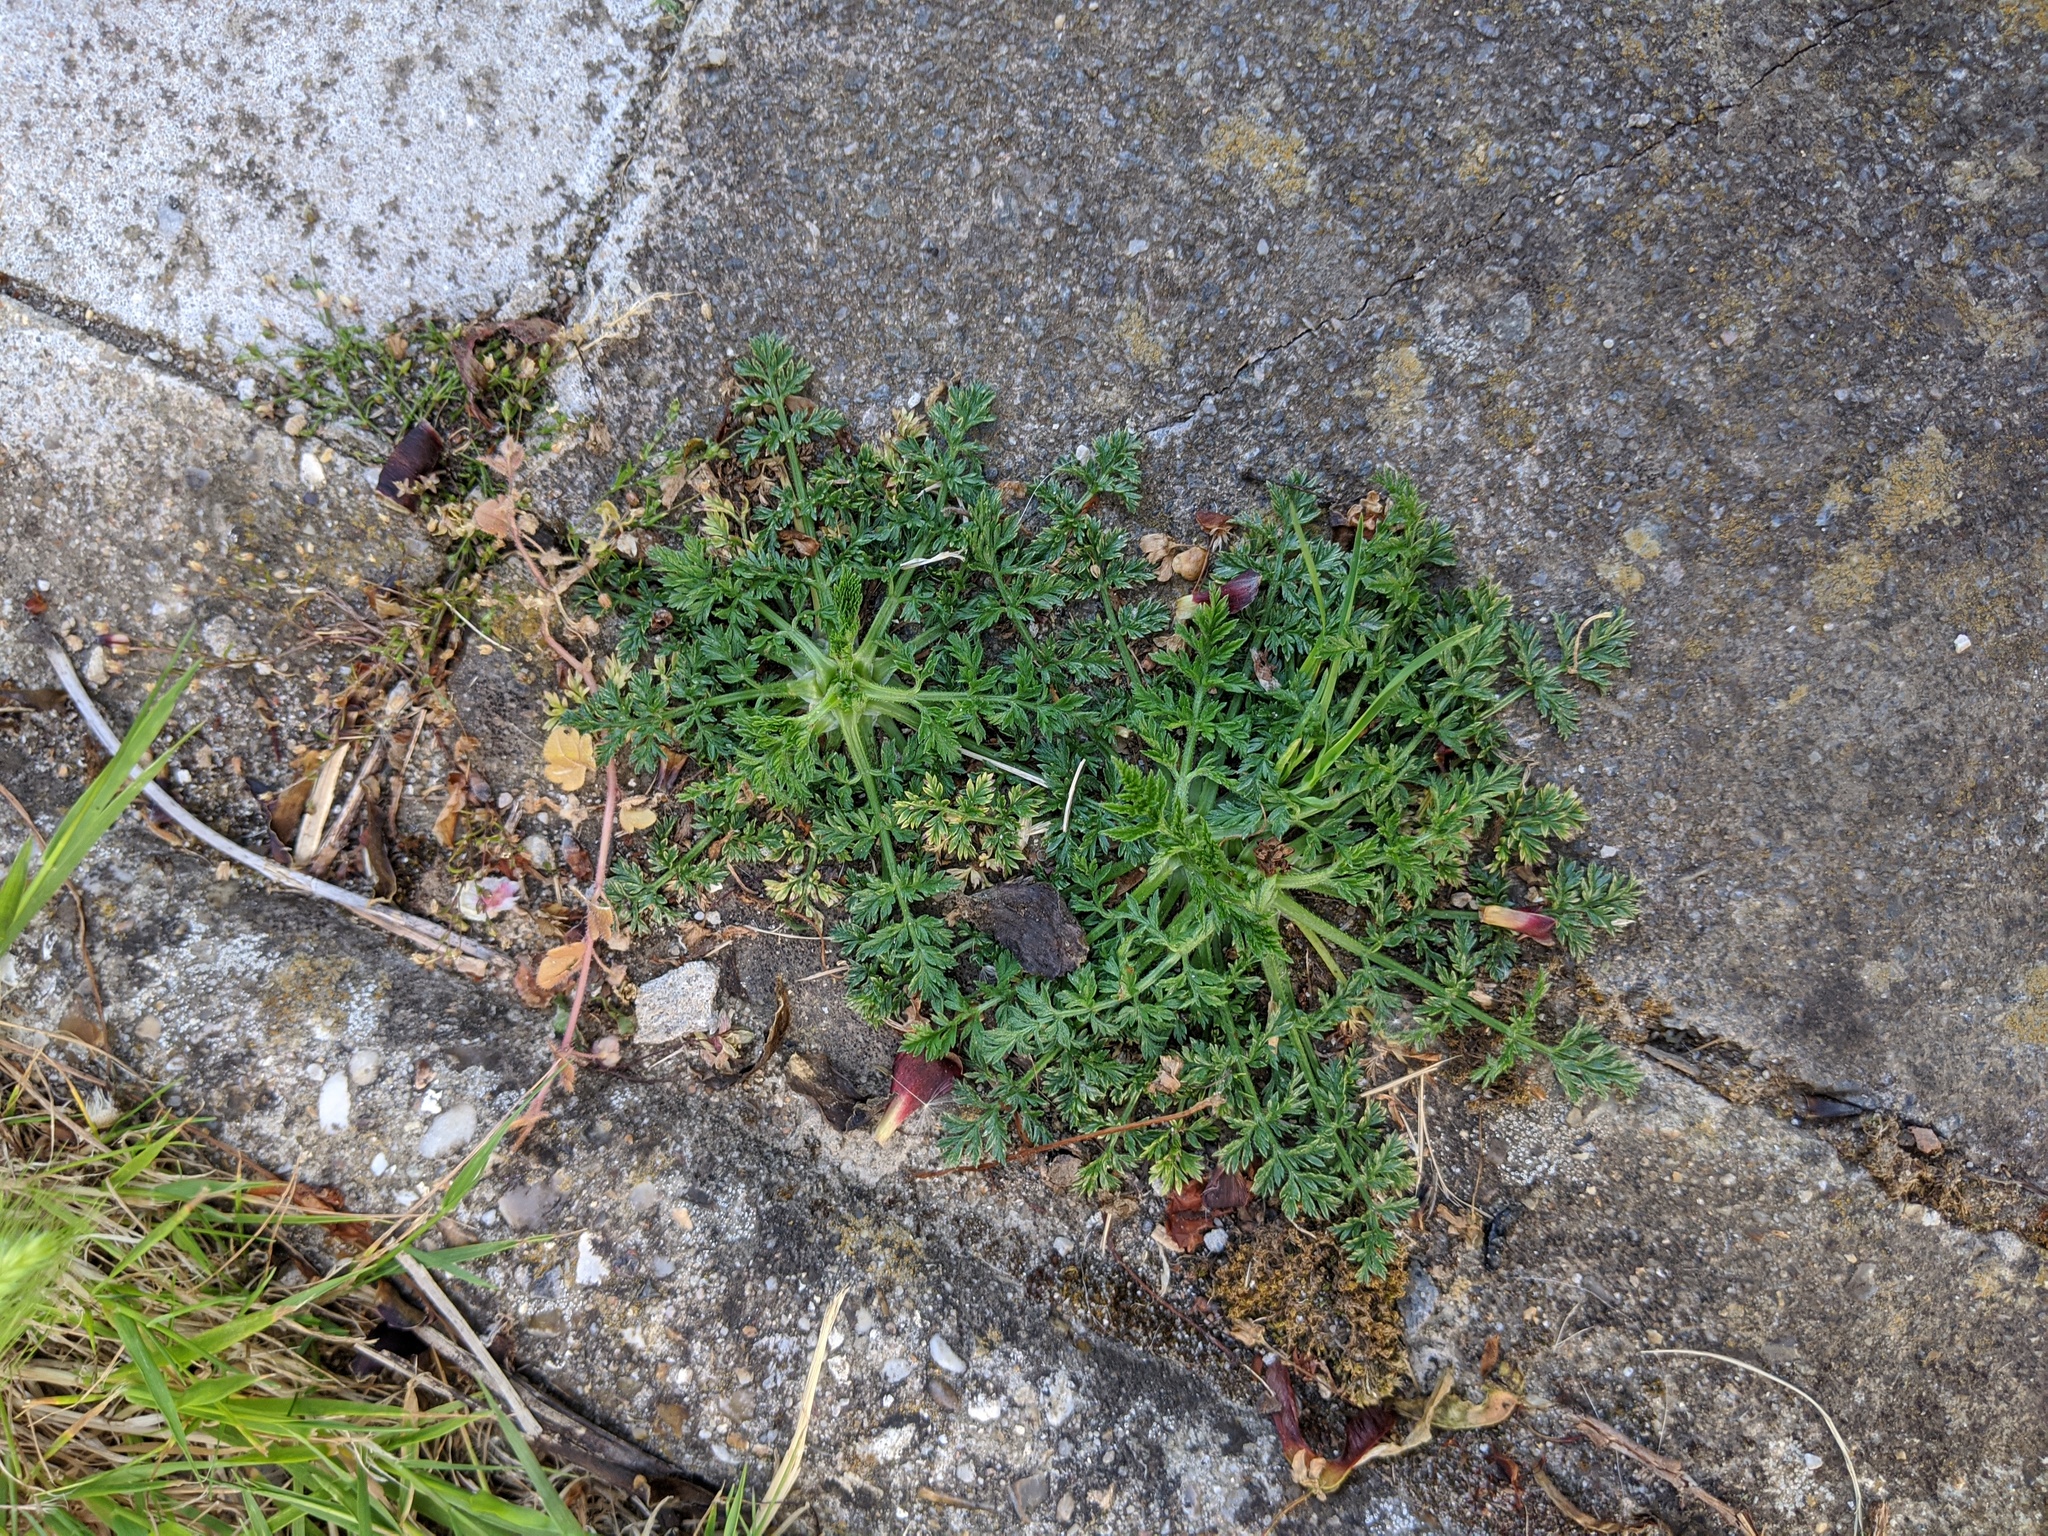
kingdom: Plantae
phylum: Tracheophyta
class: Magnoliopsida
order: Geraniales
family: Geraniaceae
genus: Erodium
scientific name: Erodium cicutarium
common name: Common stork's-bill
